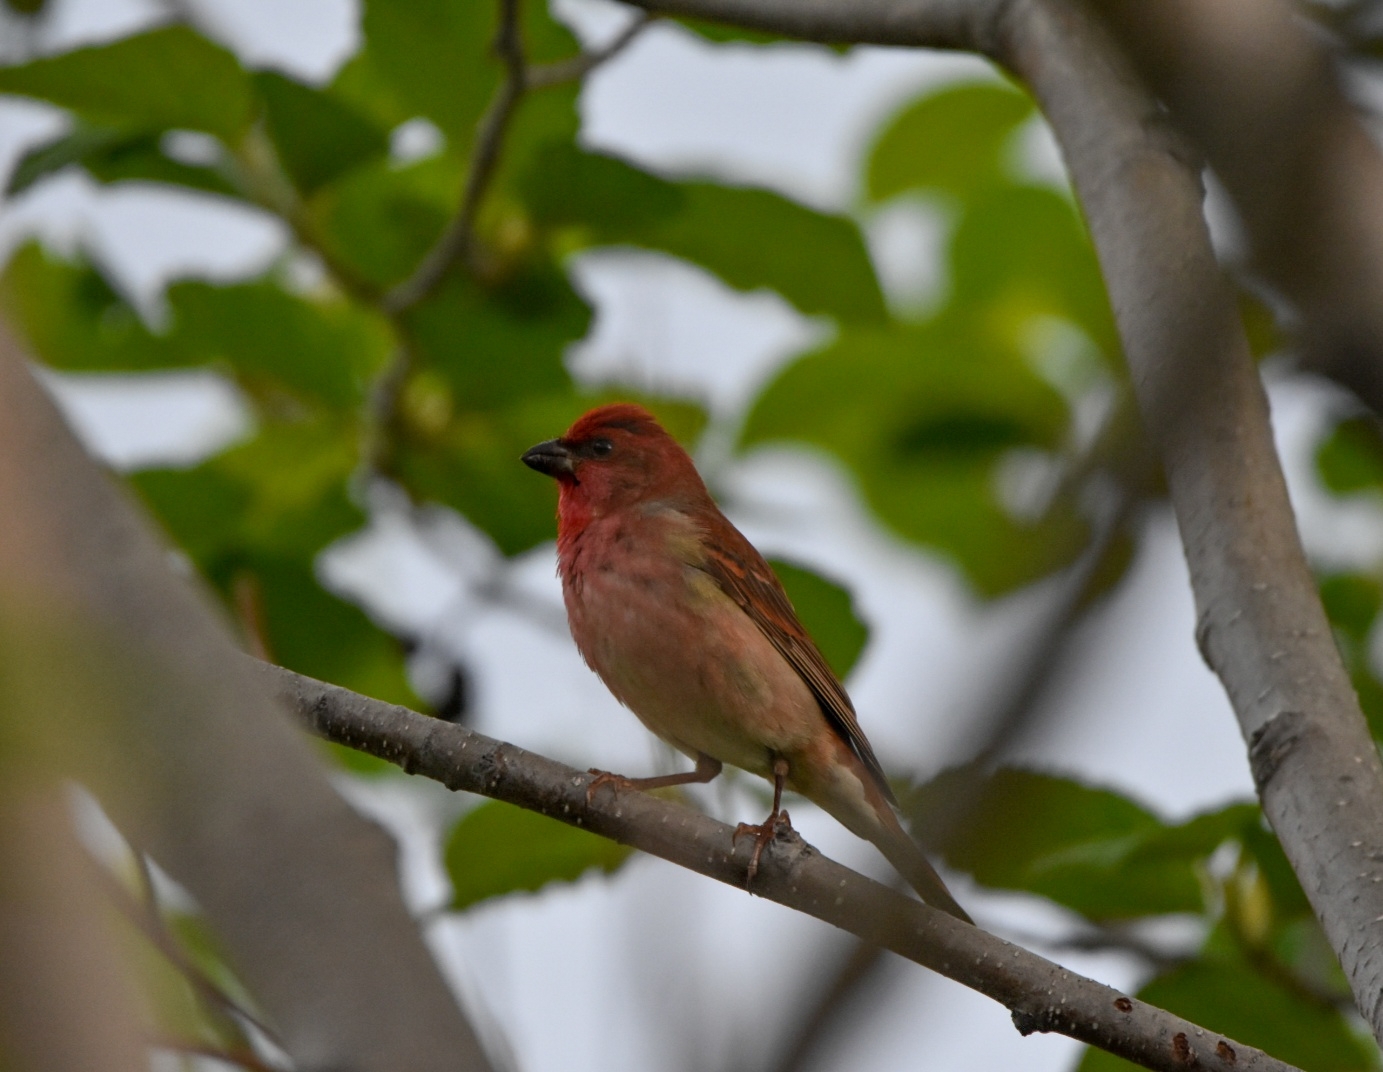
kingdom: Animalia
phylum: Chordata
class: Aves
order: Passeriformes
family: Fringillidae
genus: Carpodacus
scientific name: Carpodacus erythrinus
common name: Common rosefinch
